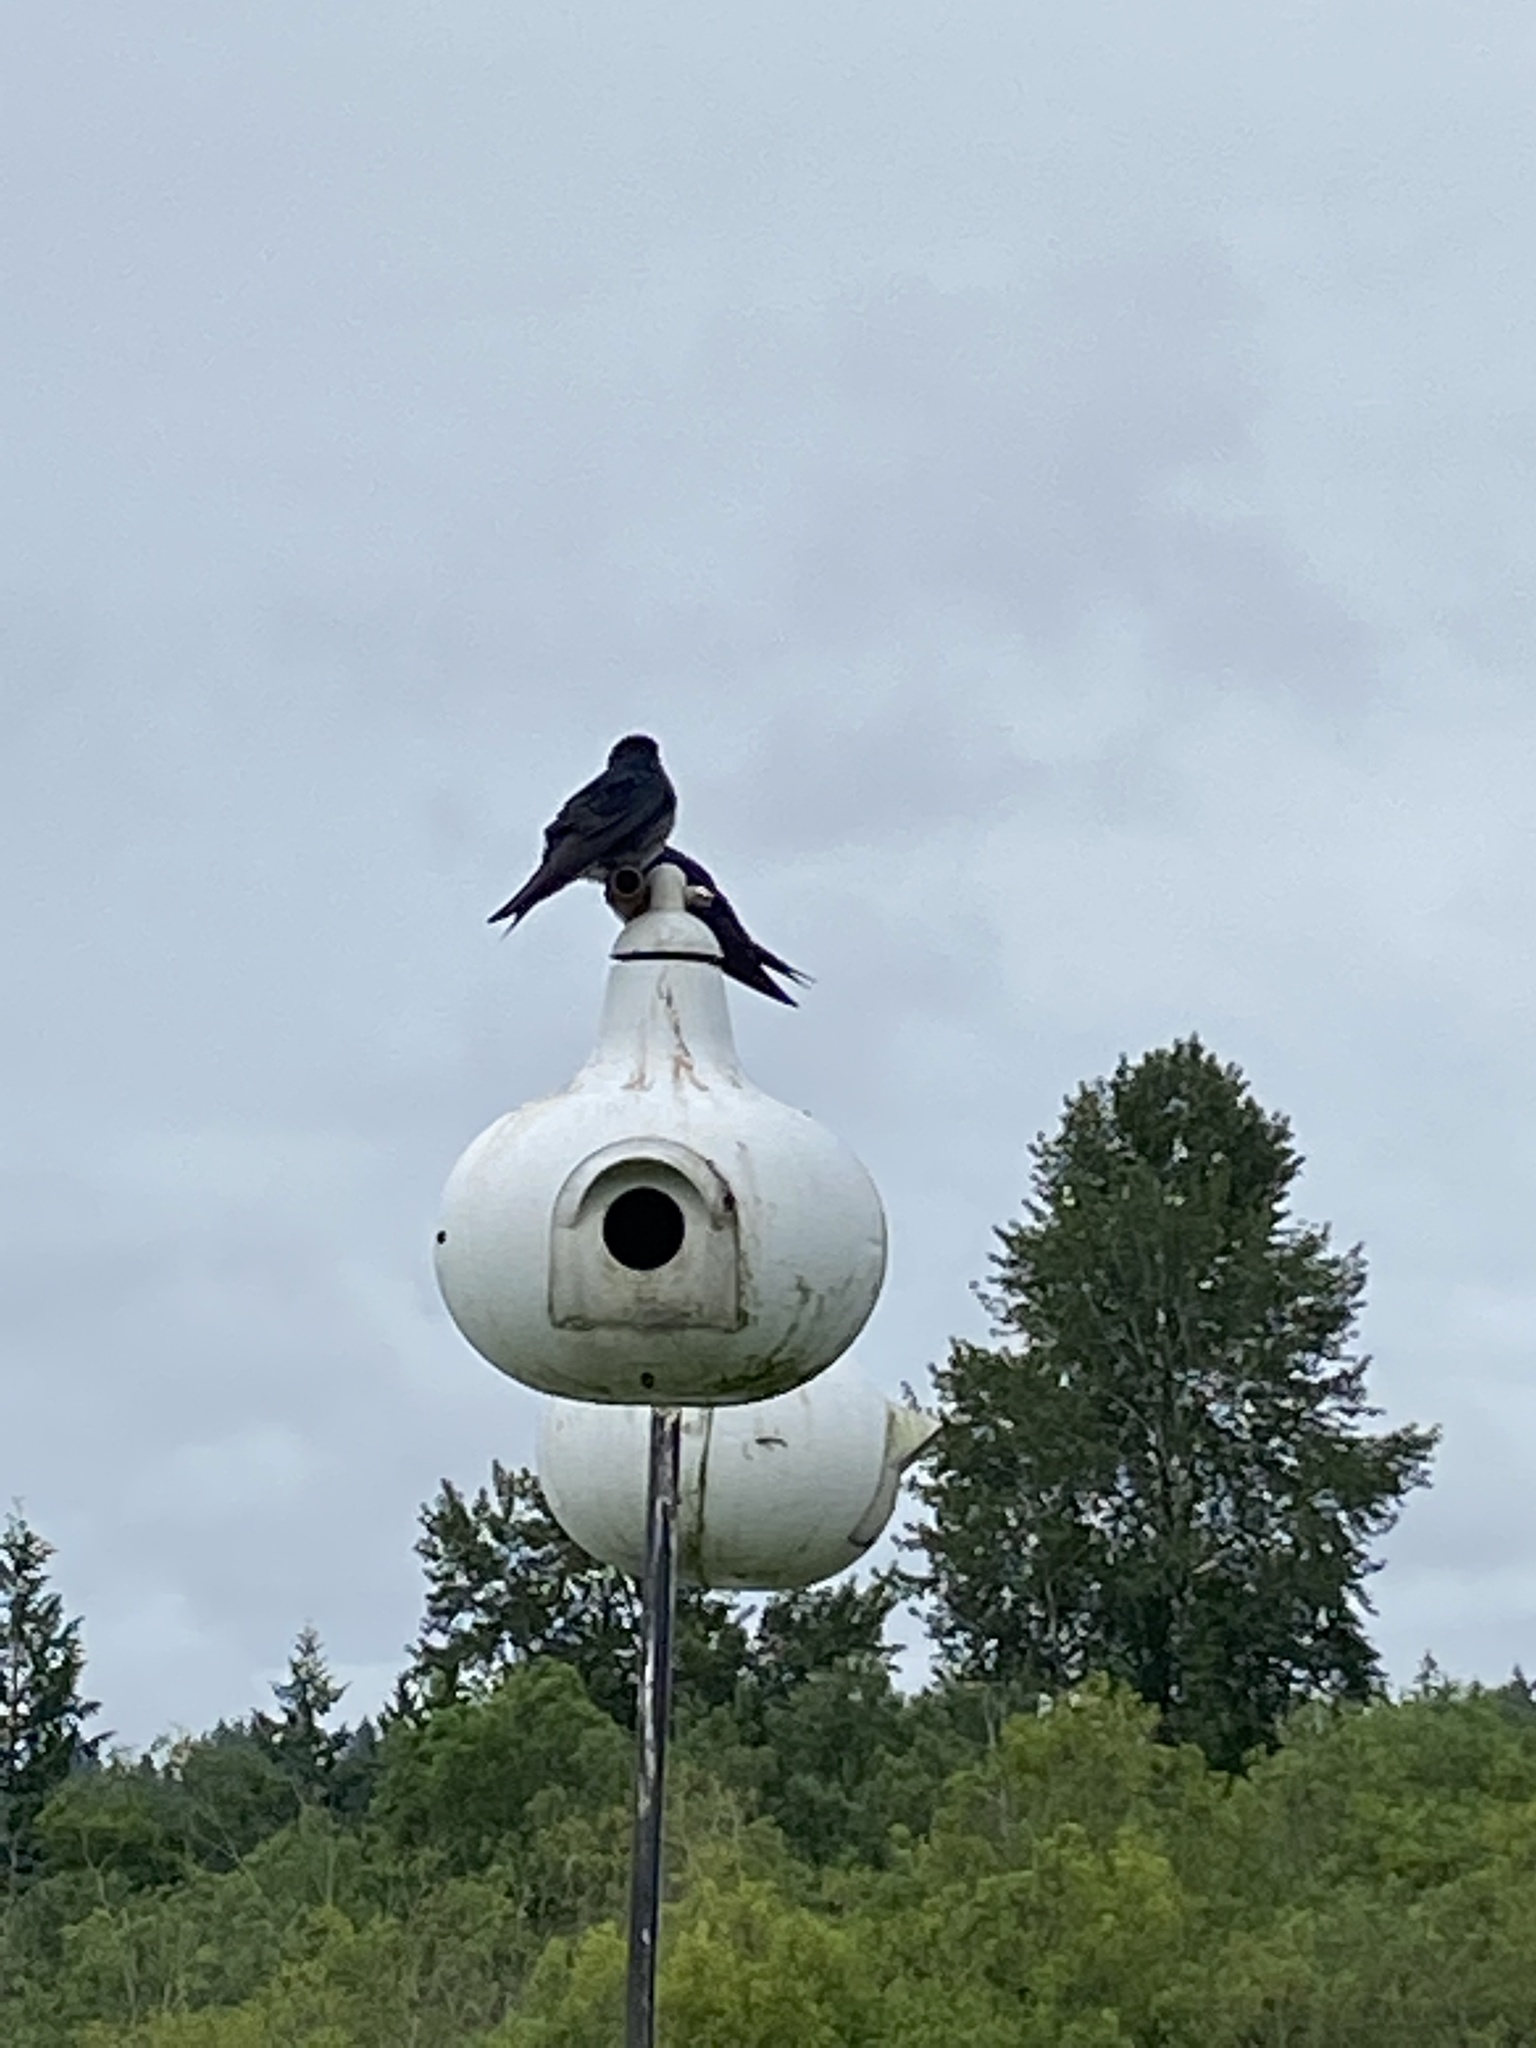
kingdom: Animalia
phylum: Chordata
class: Aves
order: Passeriformes
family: Hirundinidae
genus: Progne
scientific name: Progne subis
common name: Purple martin
